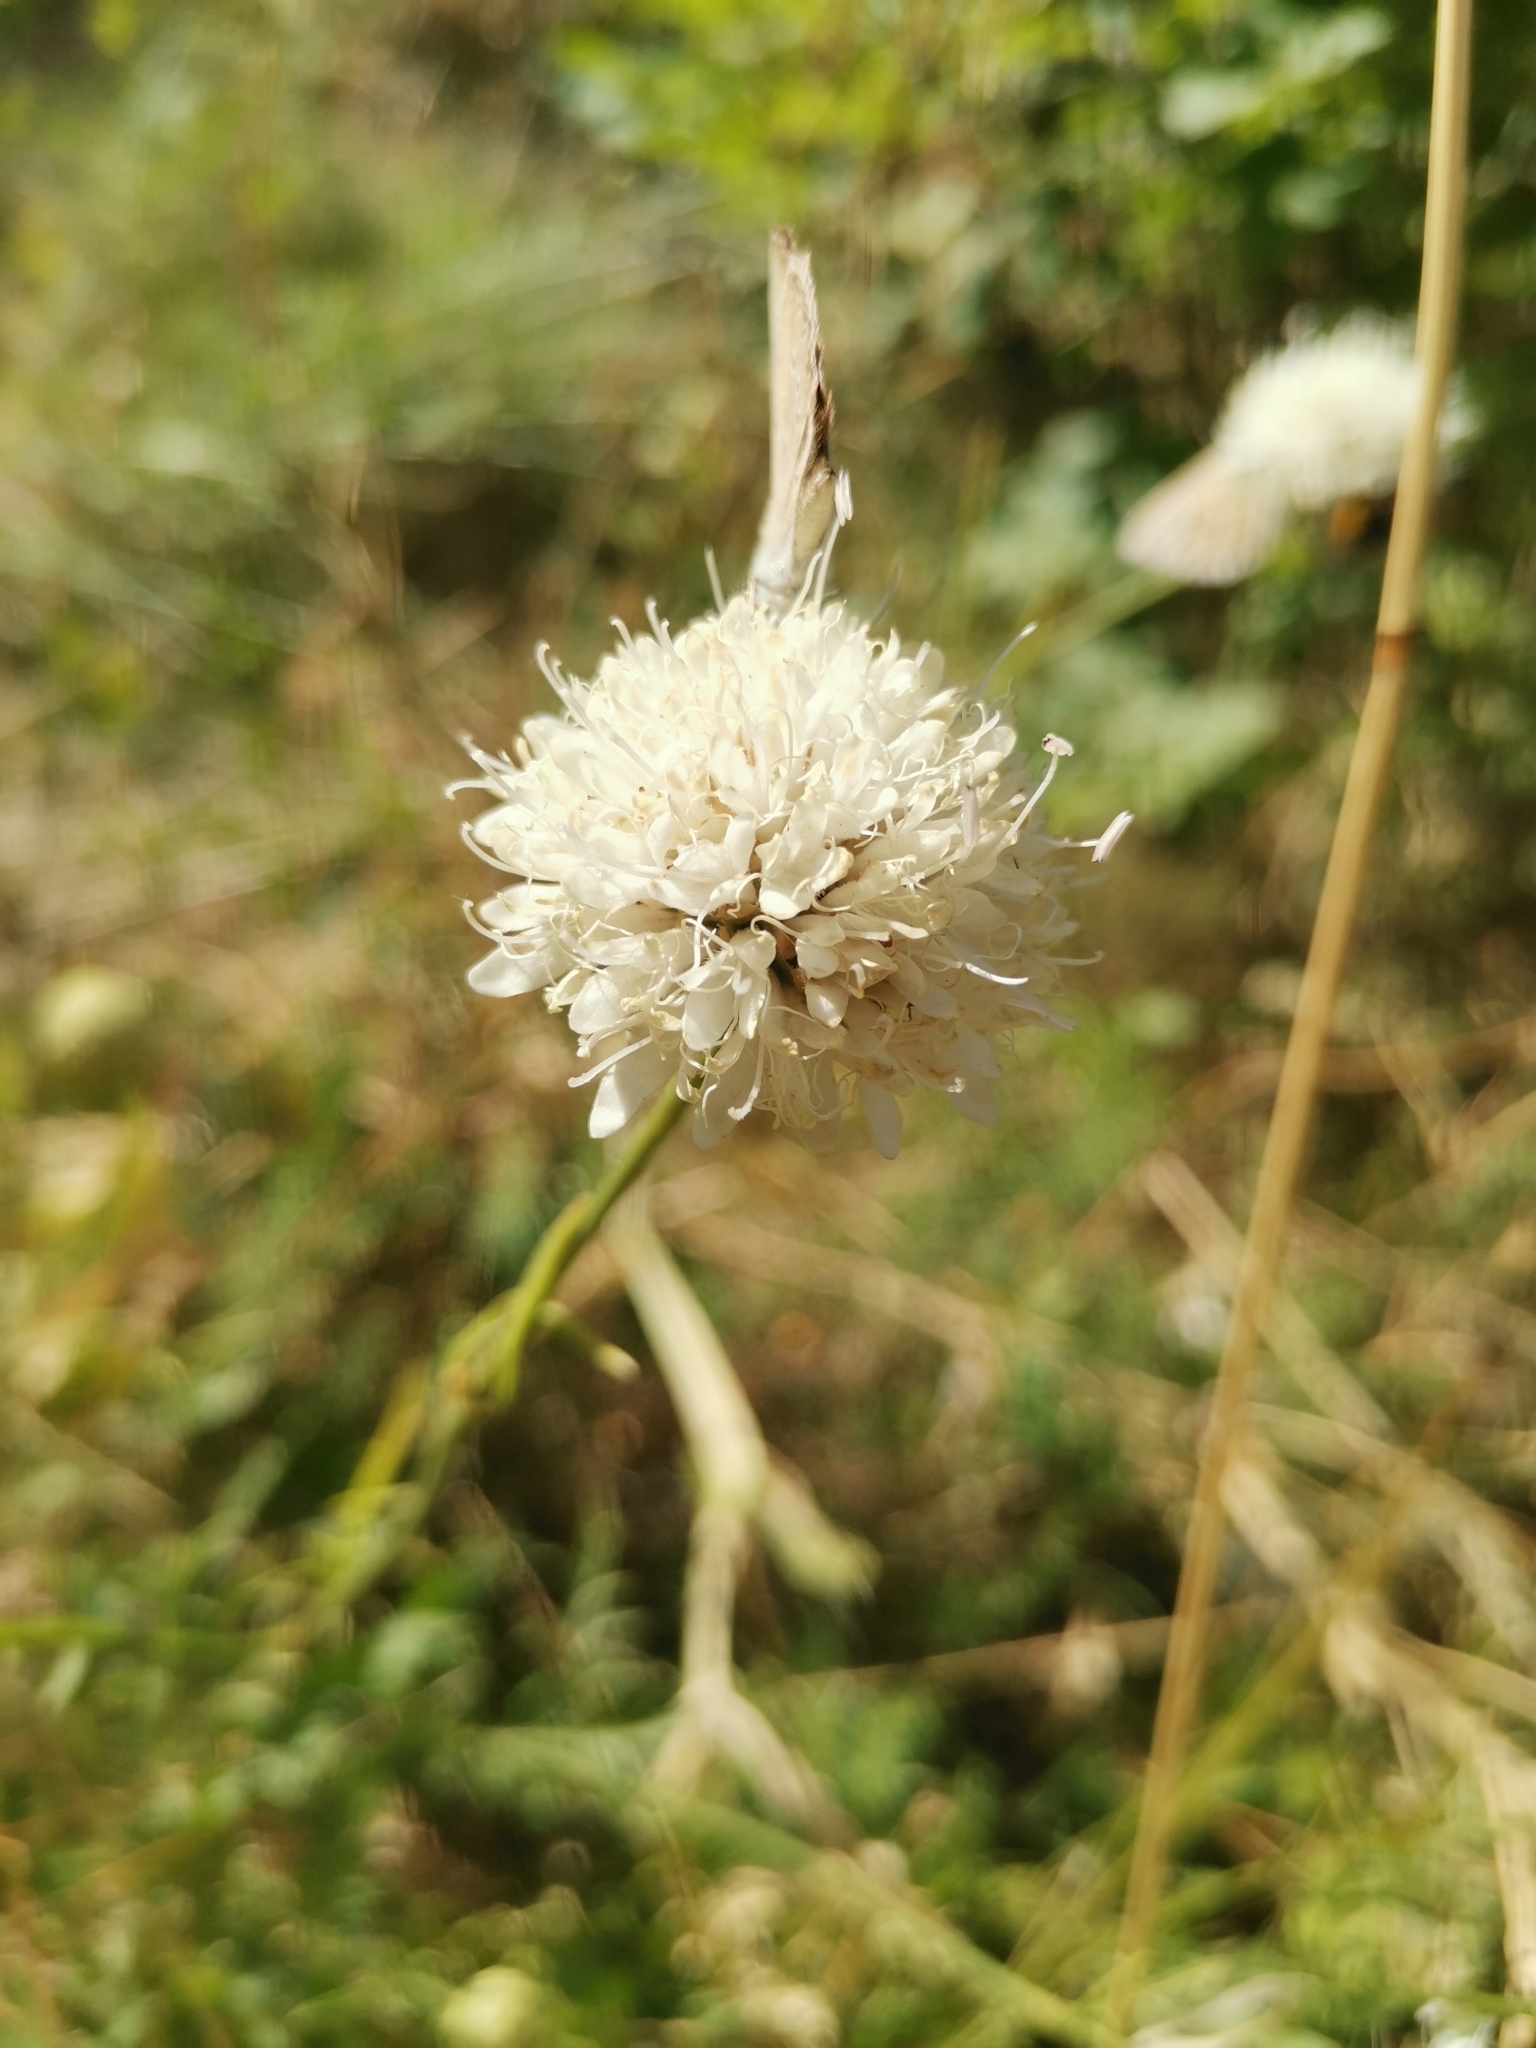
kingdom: Plantae
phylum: Tracheophyta
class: Magnoliopsida
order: Dipsacales
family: Caprifoliaceae
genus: Cephalaria
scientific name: Cephalaria leucantha
